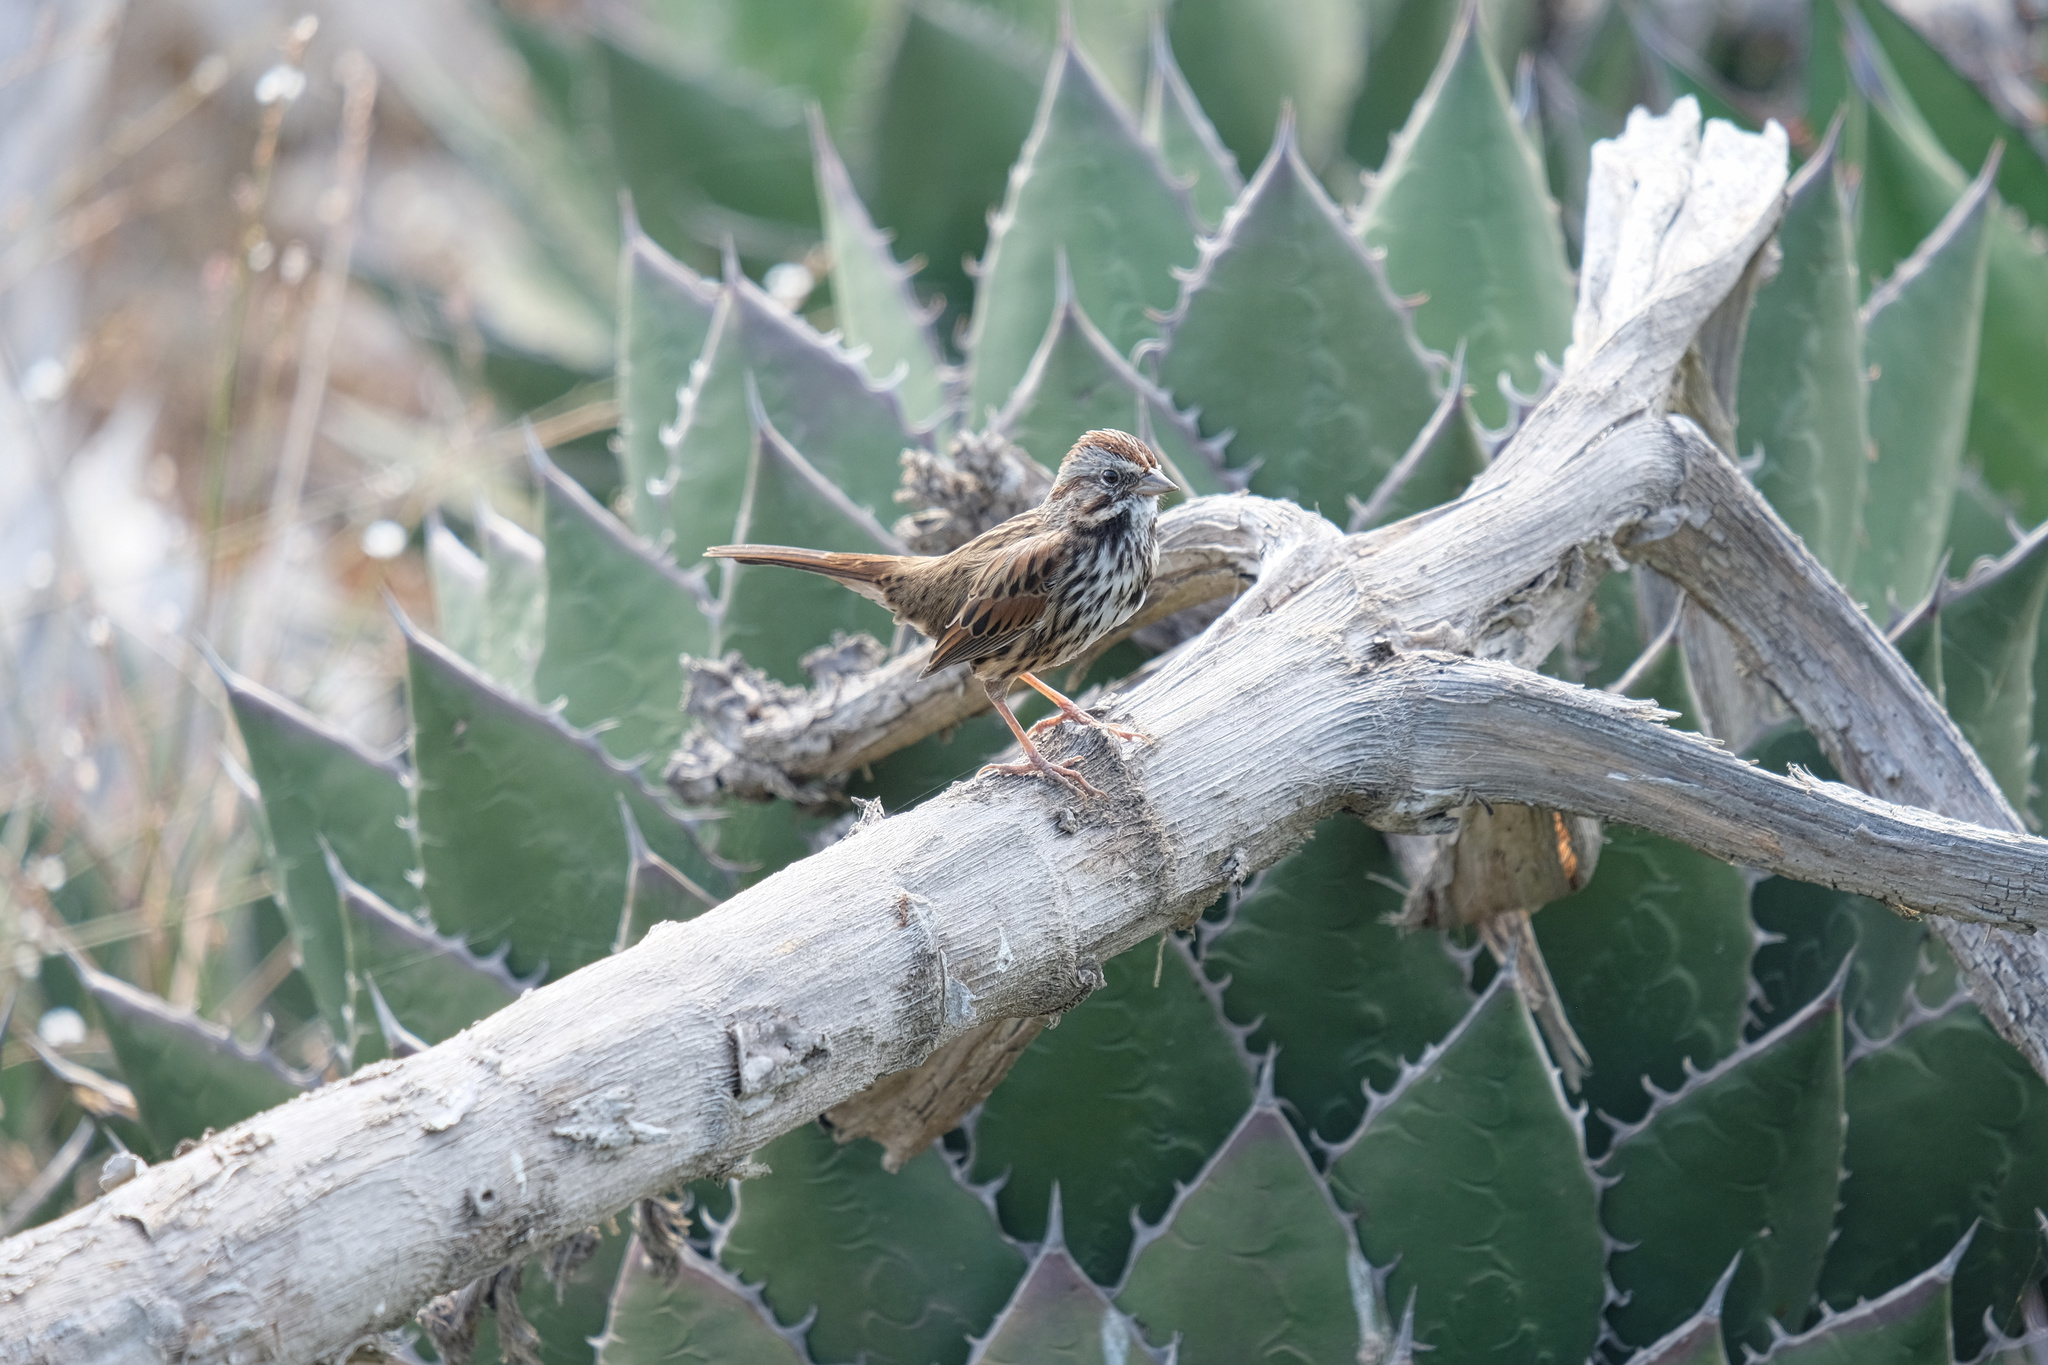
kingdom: Animalia
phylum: Chordata
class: Aves
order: Passeriformes
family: Passerellidae
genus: Melospiza
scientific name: Melospiza melodia
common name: Song sparrow
